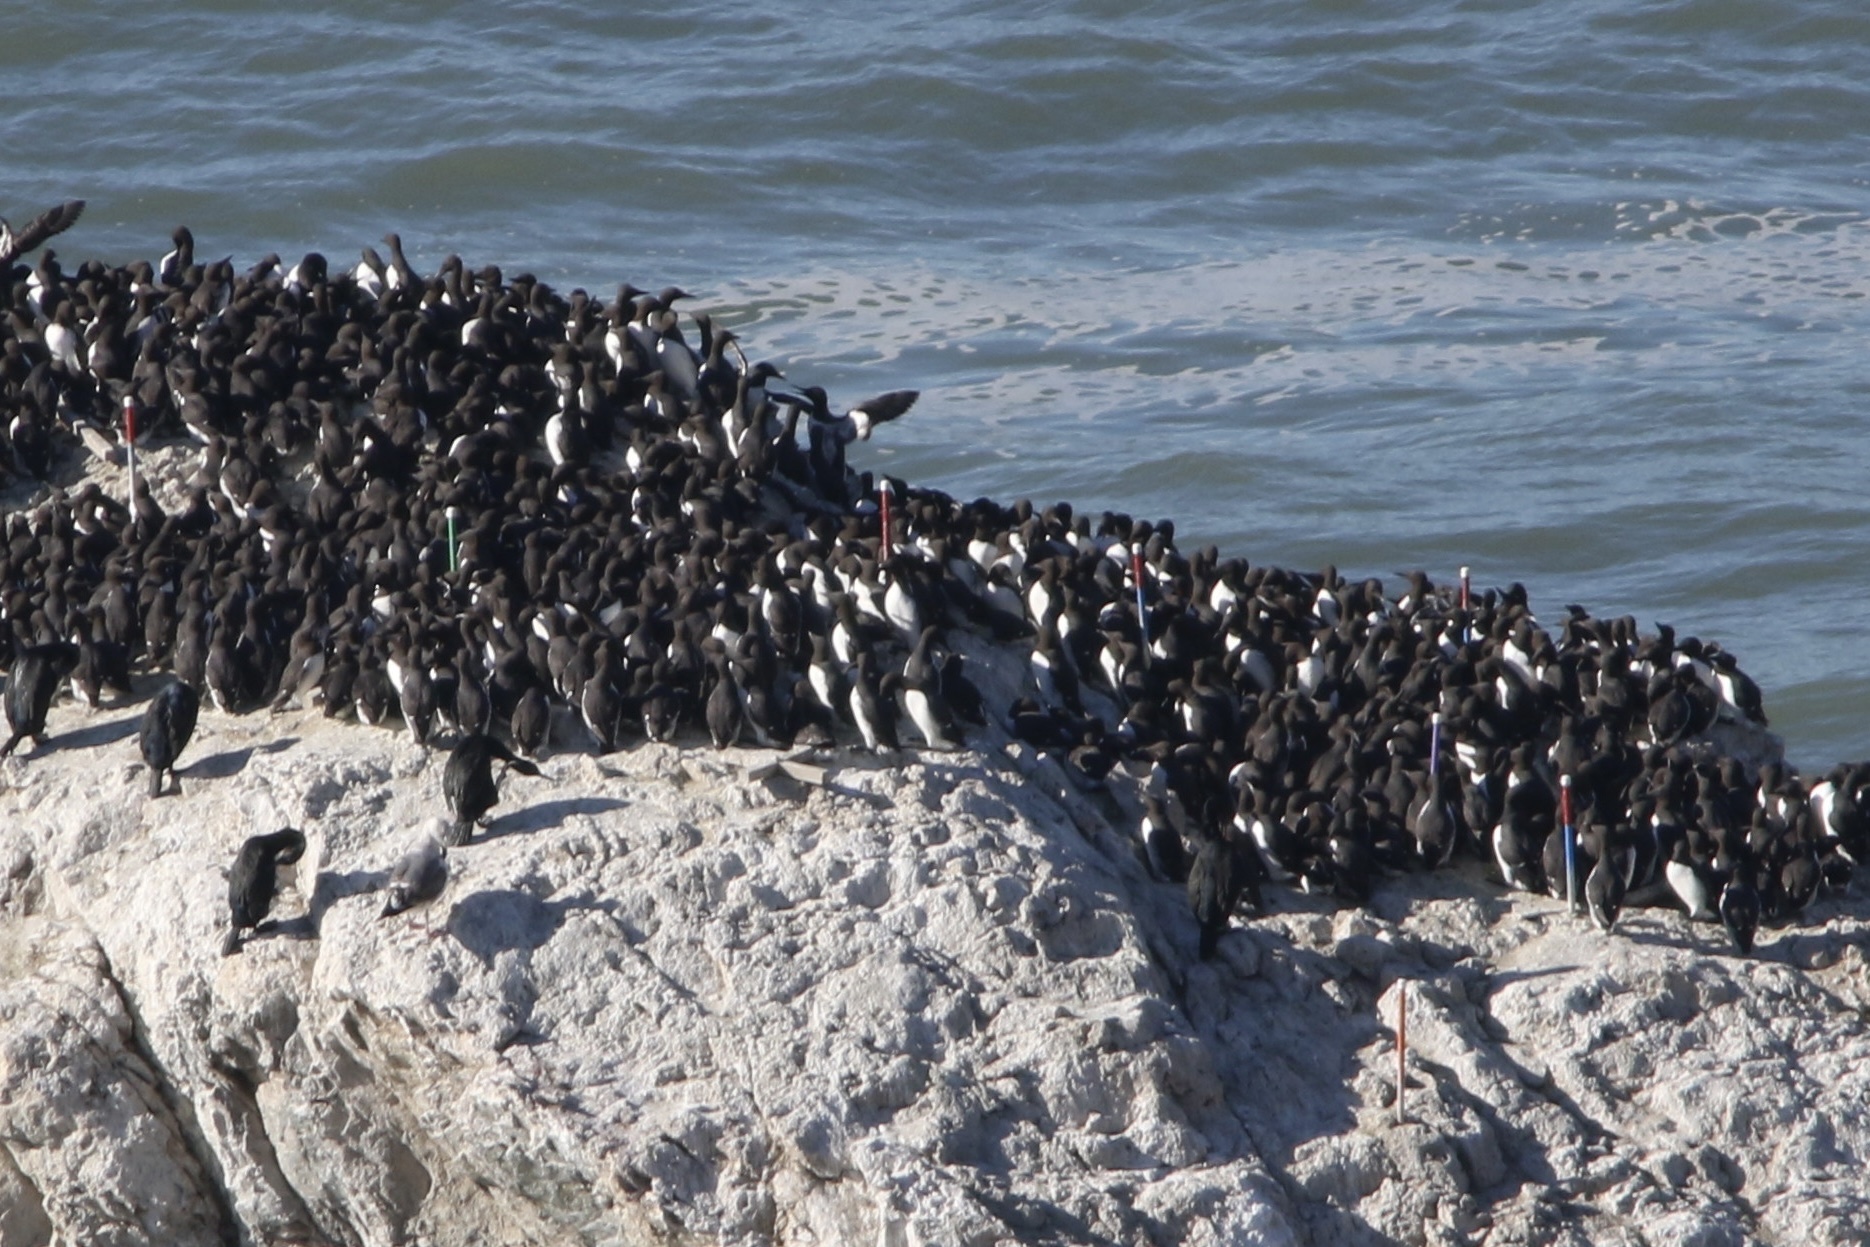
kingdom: Animalia
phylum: Chordata
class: Aves
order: Charadriiformes
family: Alcidae
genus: Uria
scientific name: Uria aalge
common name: Common murre
